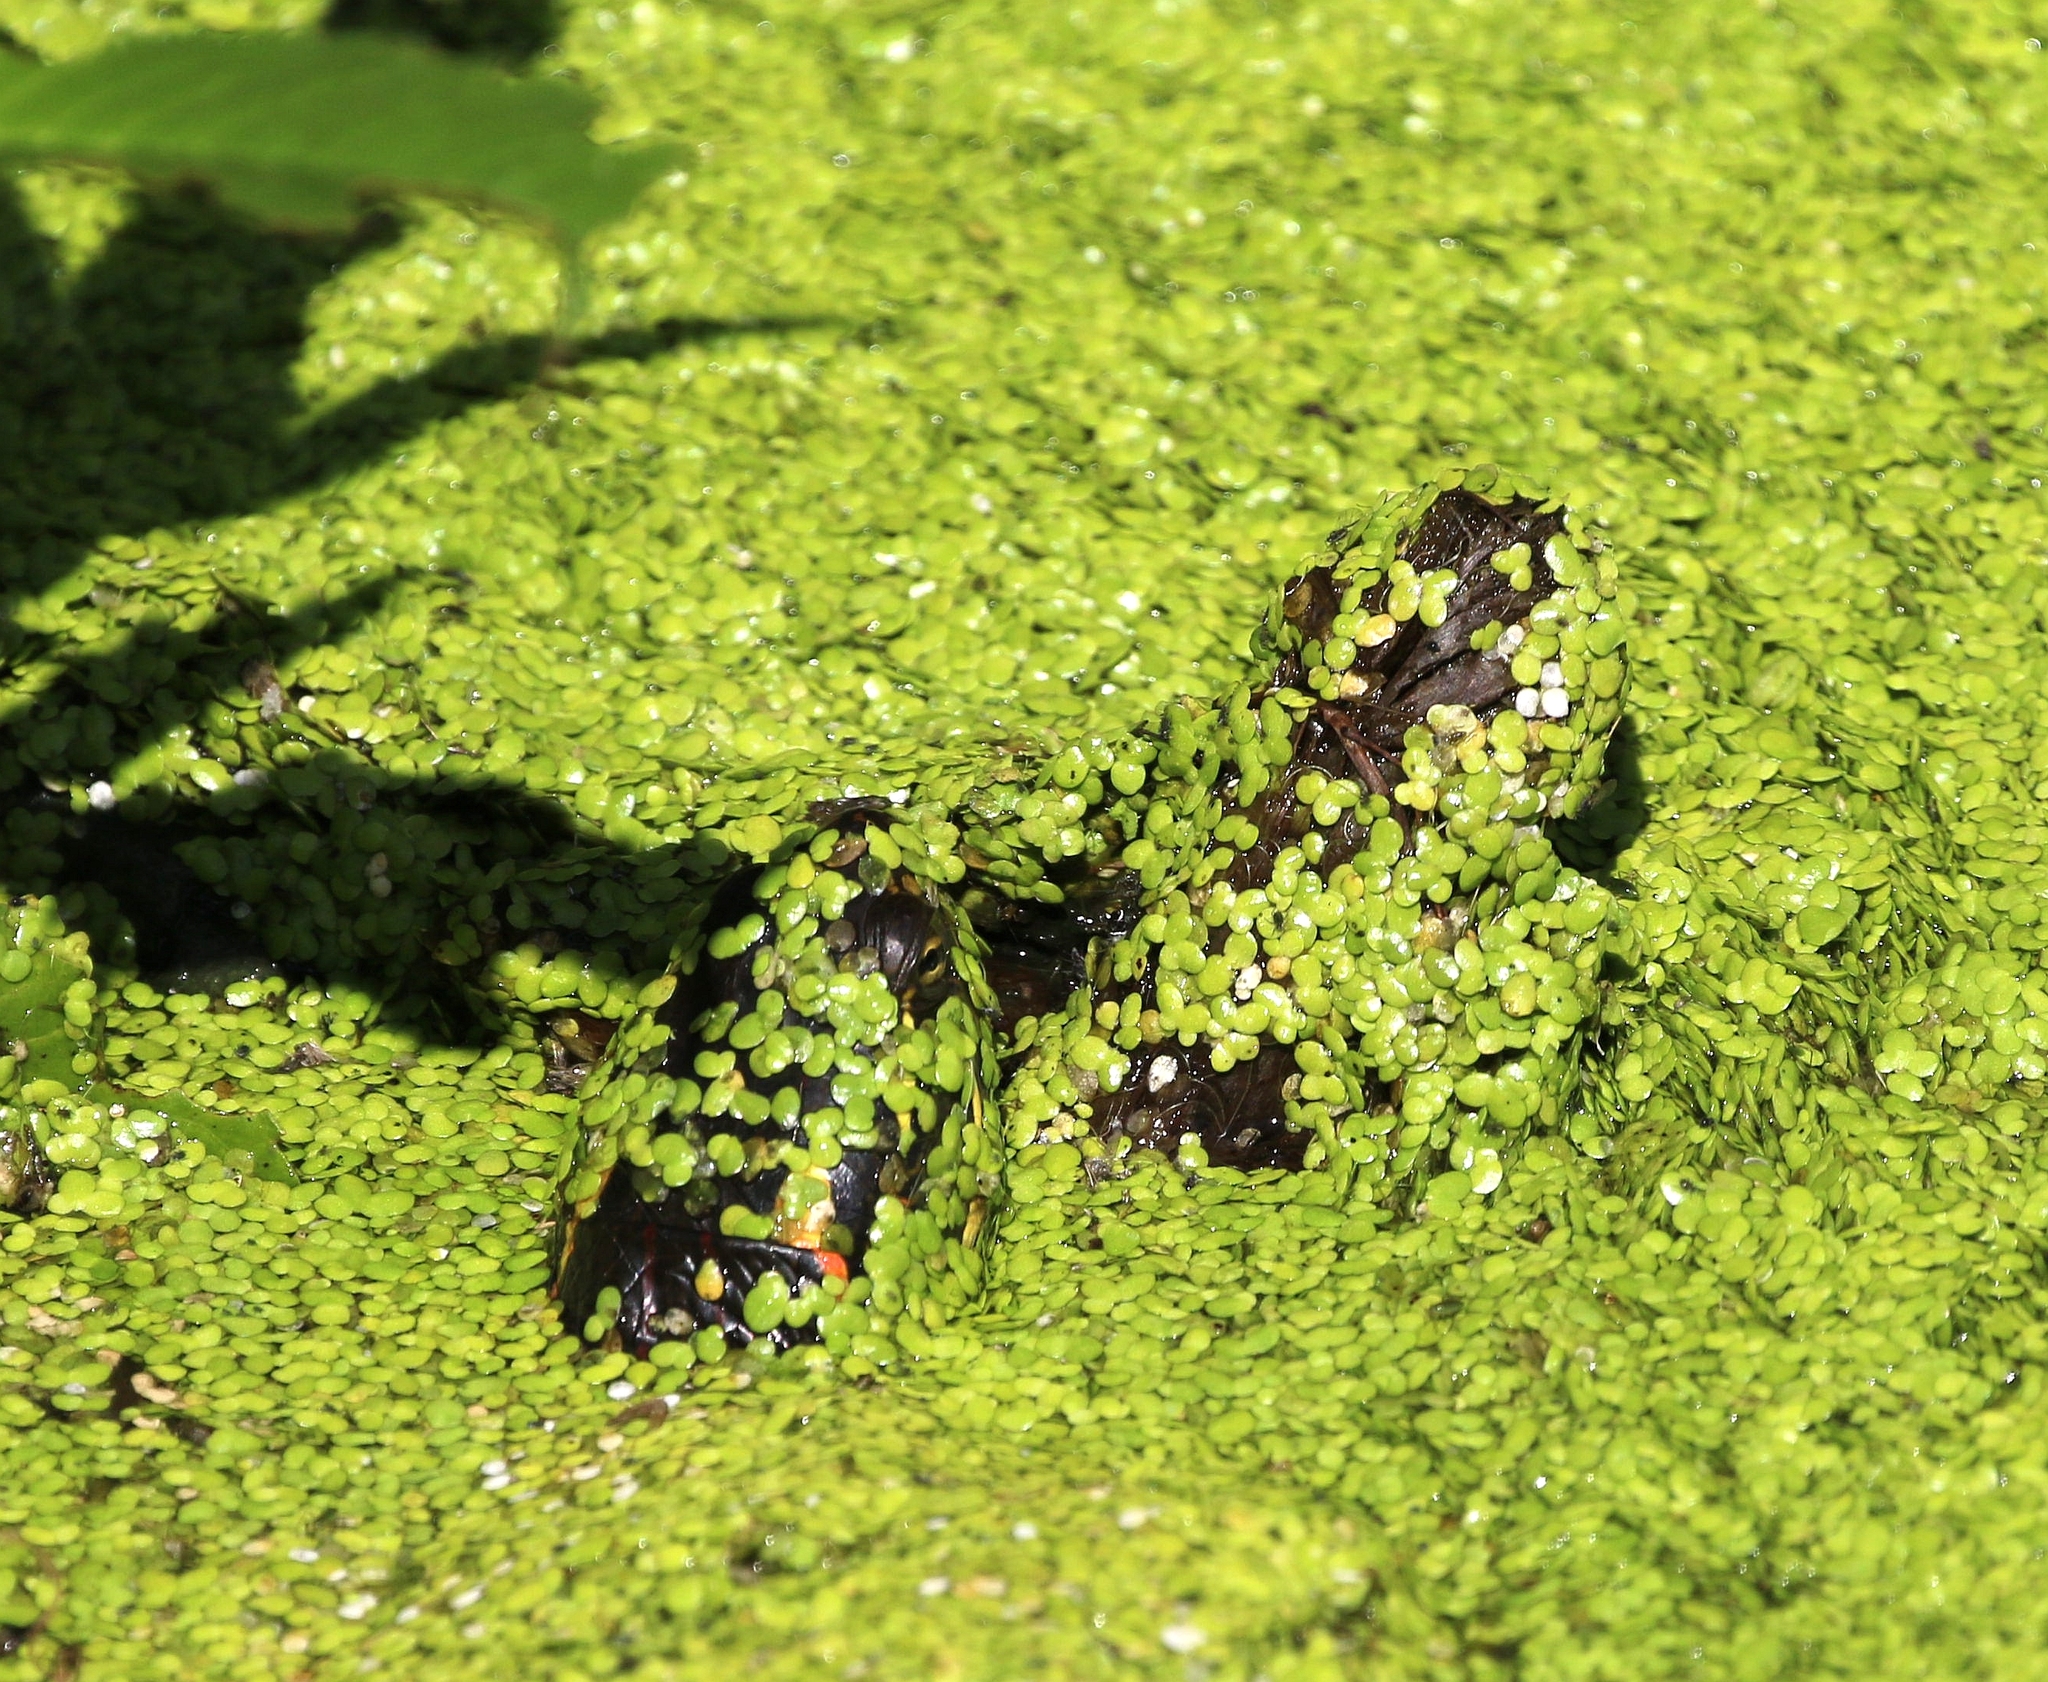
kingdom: Animalia
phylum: Chordata
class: Testudines
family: Emydidae
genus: Chrysemys
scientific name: Chrysemys picta
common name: Painted turtle
